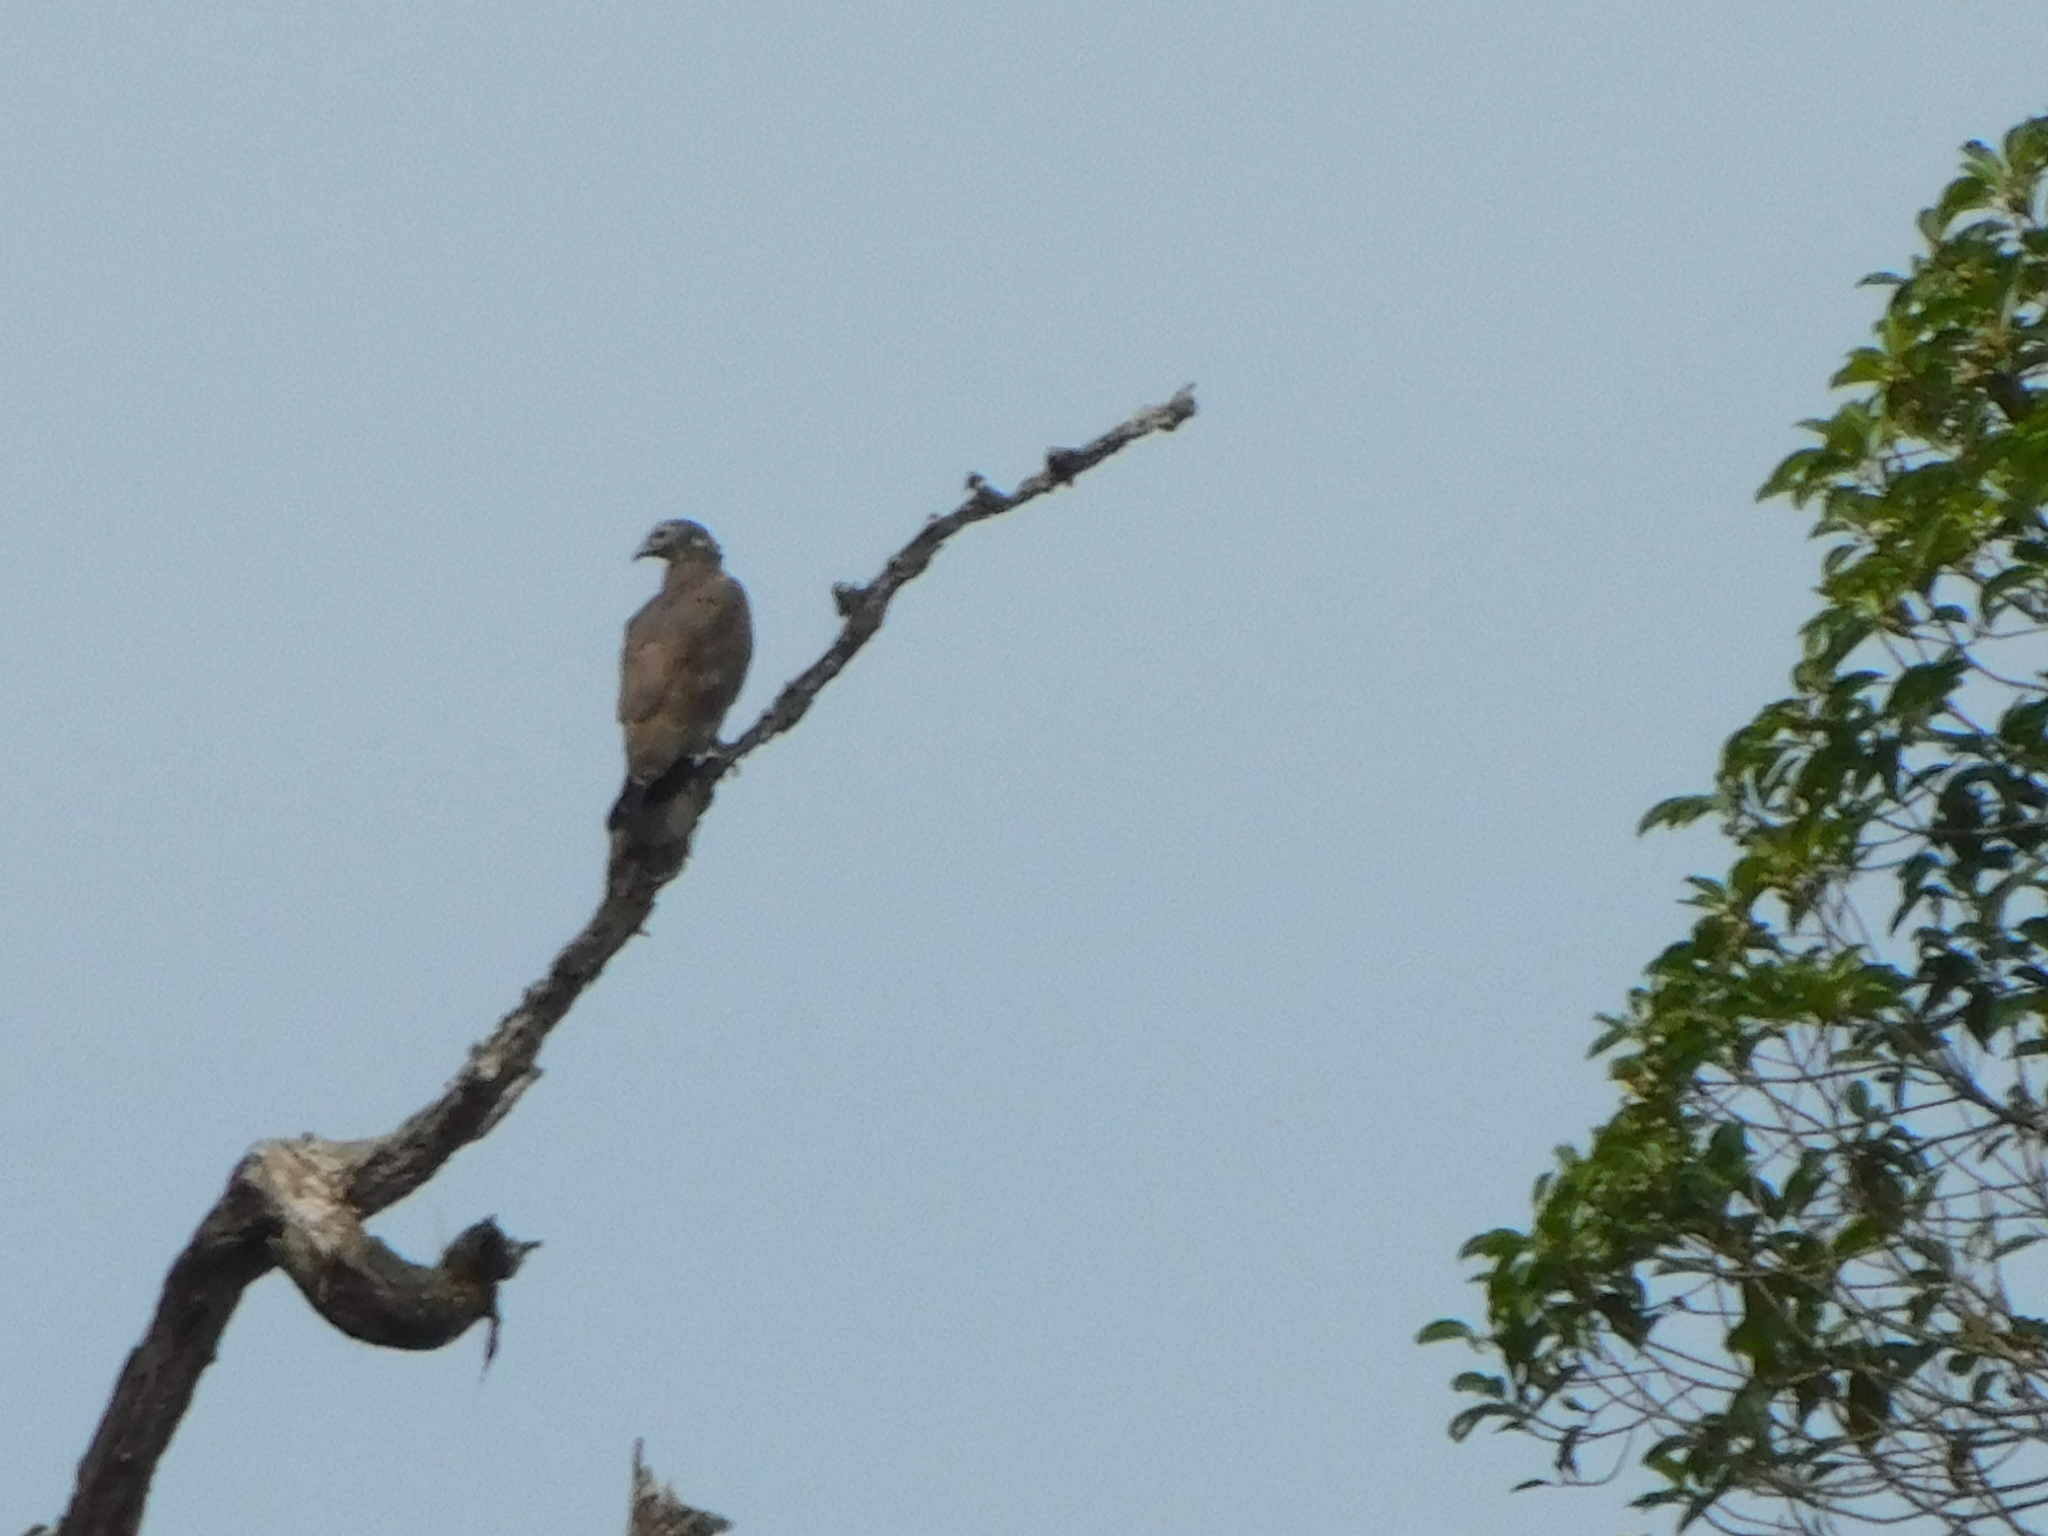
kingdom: Animalia
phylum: Chordata
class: Aves
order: Accipitriformes
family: Accipitridae
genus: Pernis
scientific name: Pernis ptilorhynchus
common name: Crested honey buzzard
